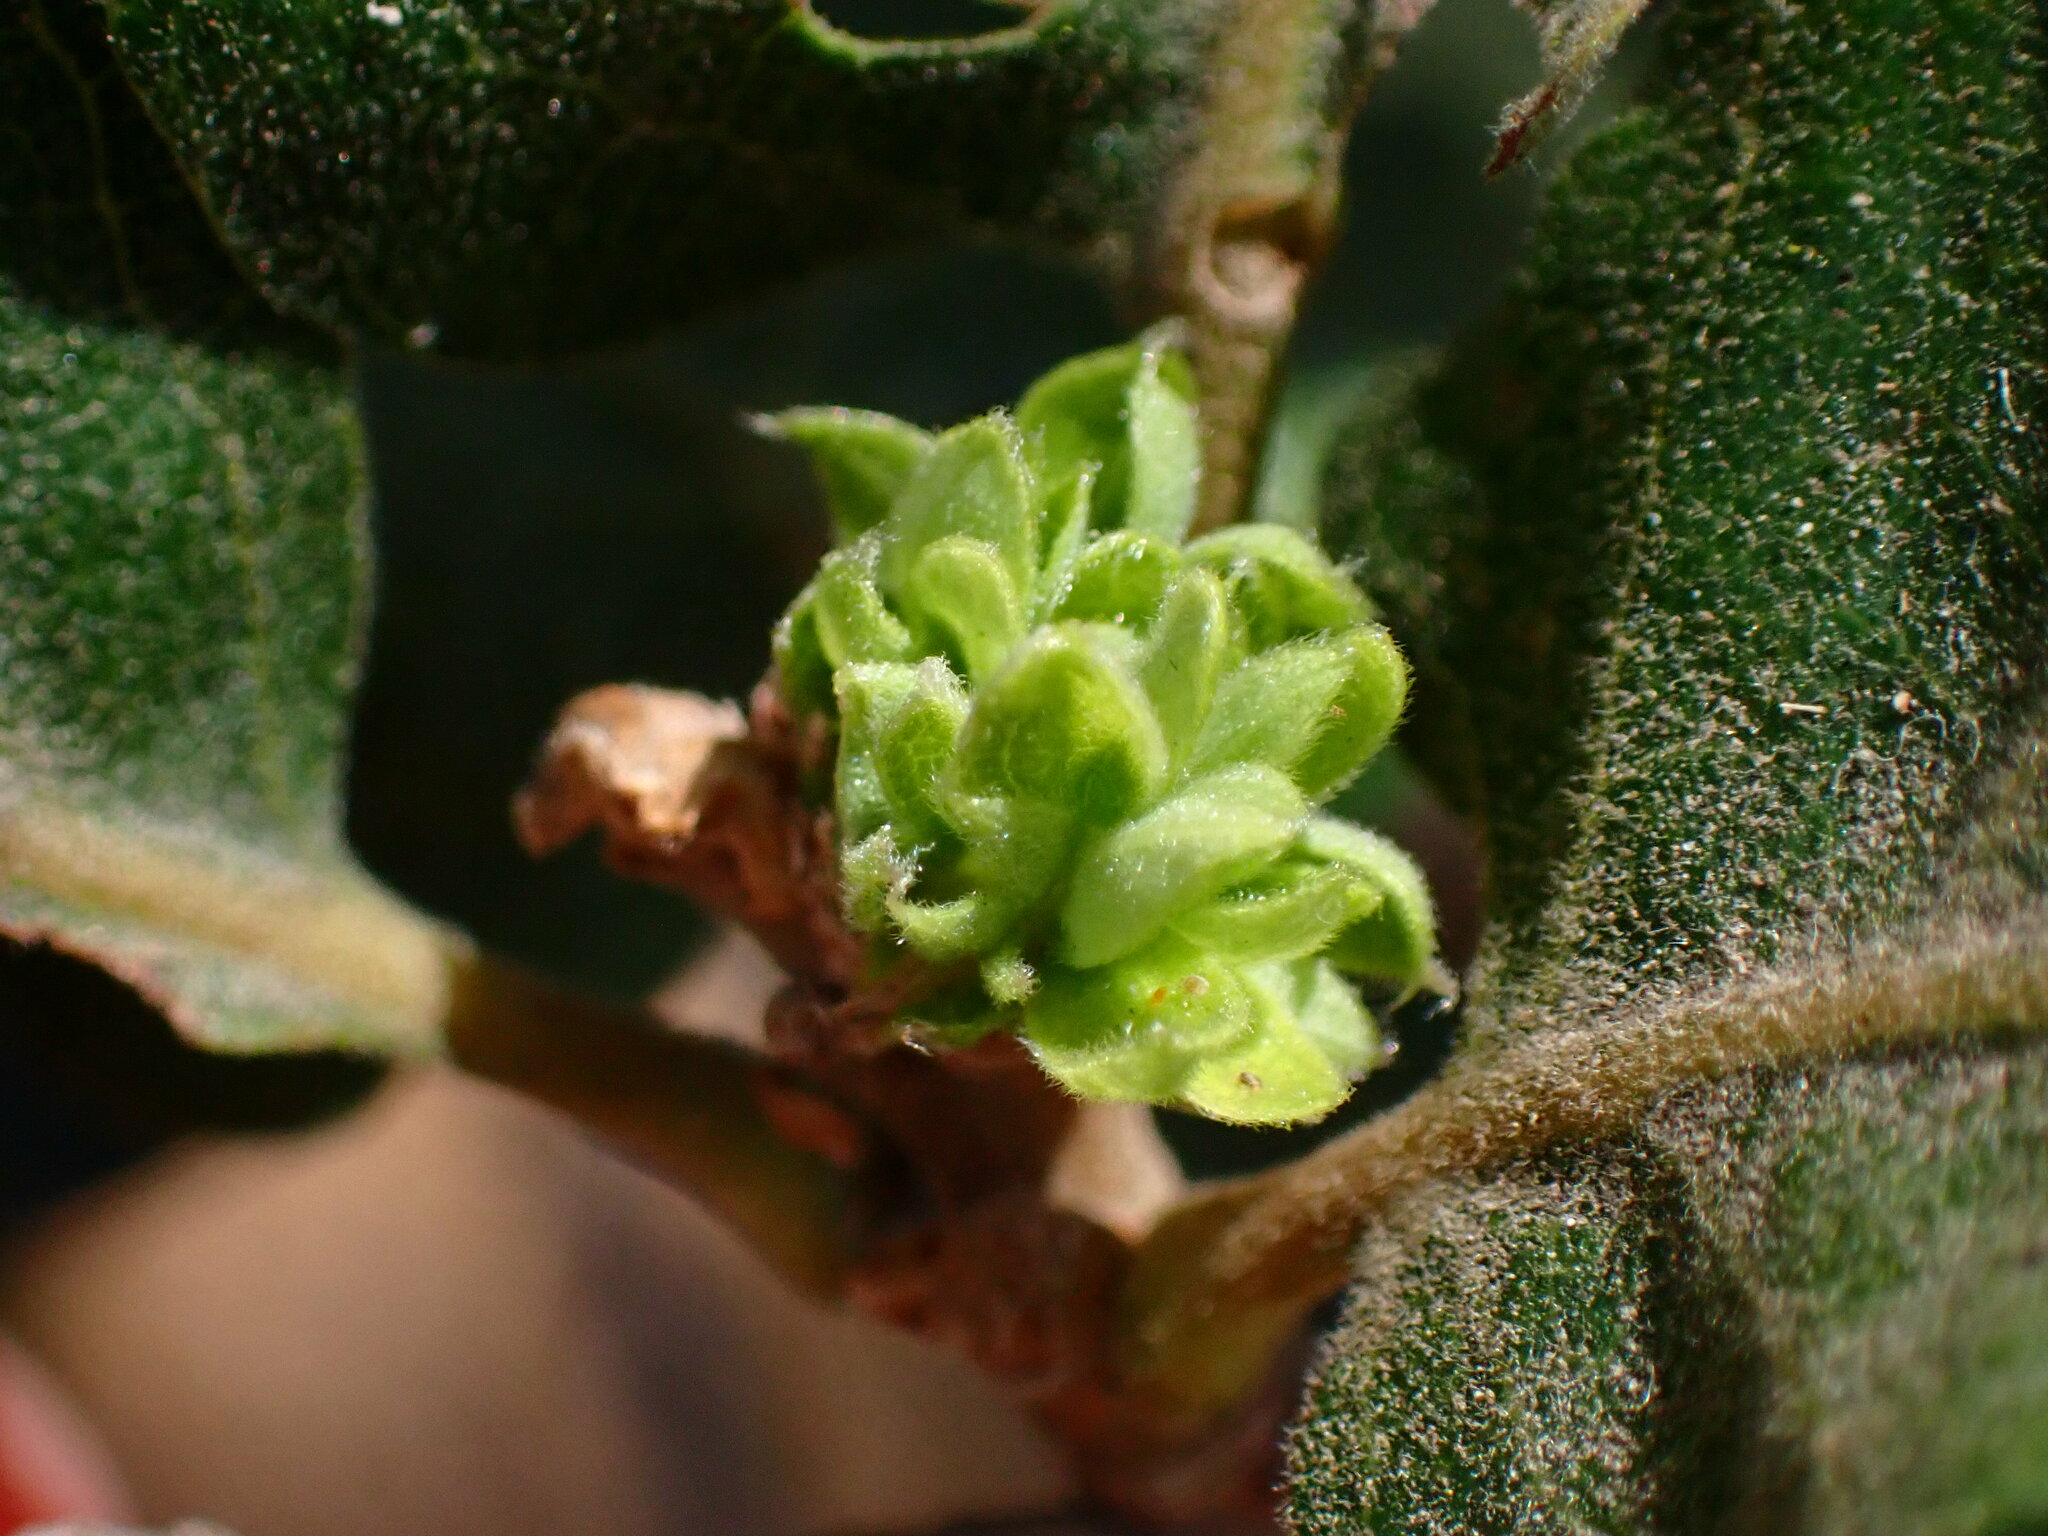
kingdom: Animalia
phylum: Arthropoda
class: Insecta
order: Hymenoptera
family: Cynipidae
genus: Andricus
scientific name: Andricus
